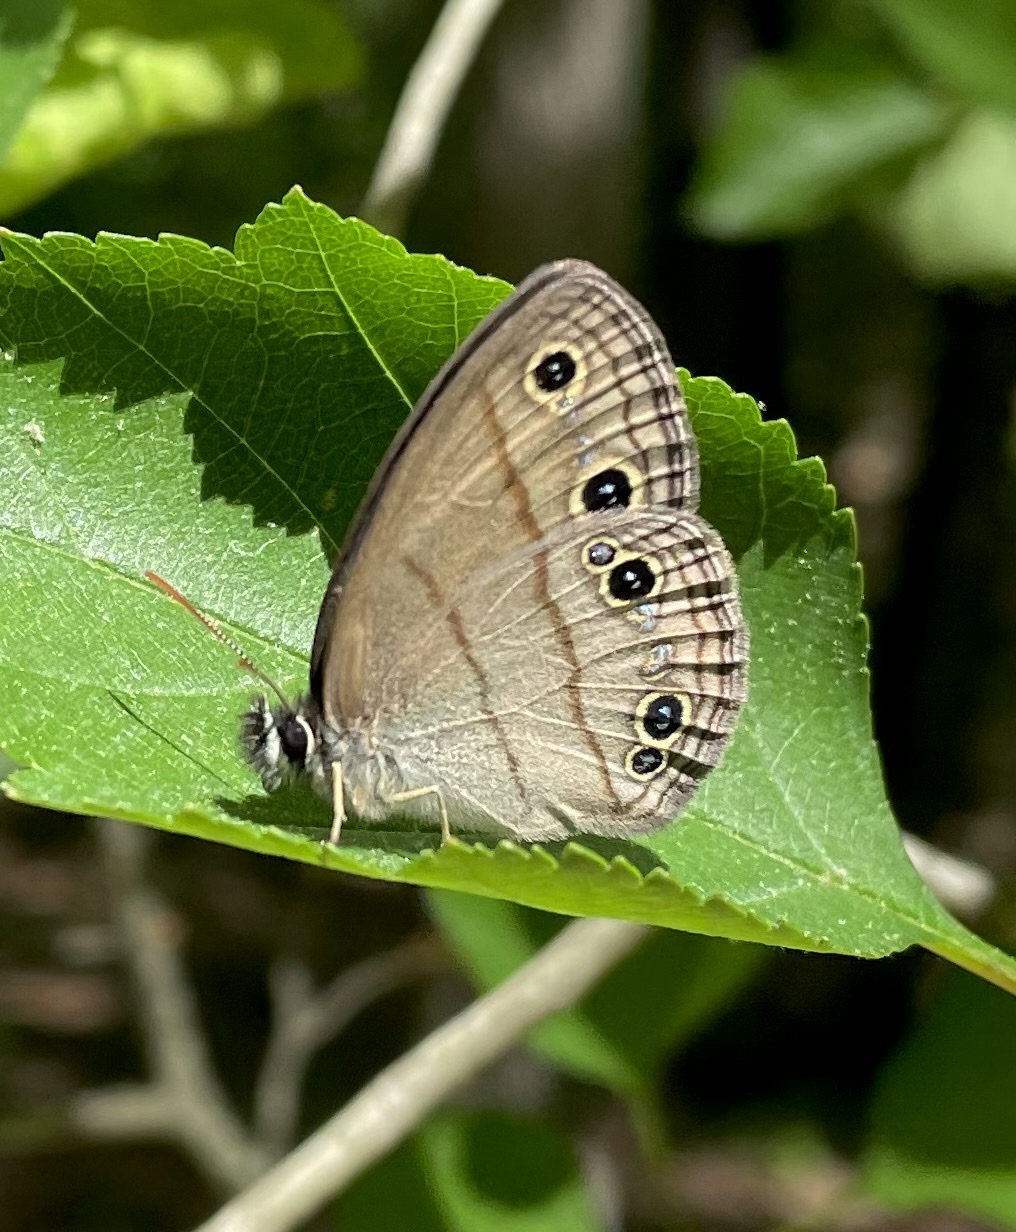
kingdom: Animalia
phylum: Arthropoda
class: Insecta
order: Lepidoptera
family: Nymphalidae
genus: Euptychia
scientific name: Euptychia cymela
